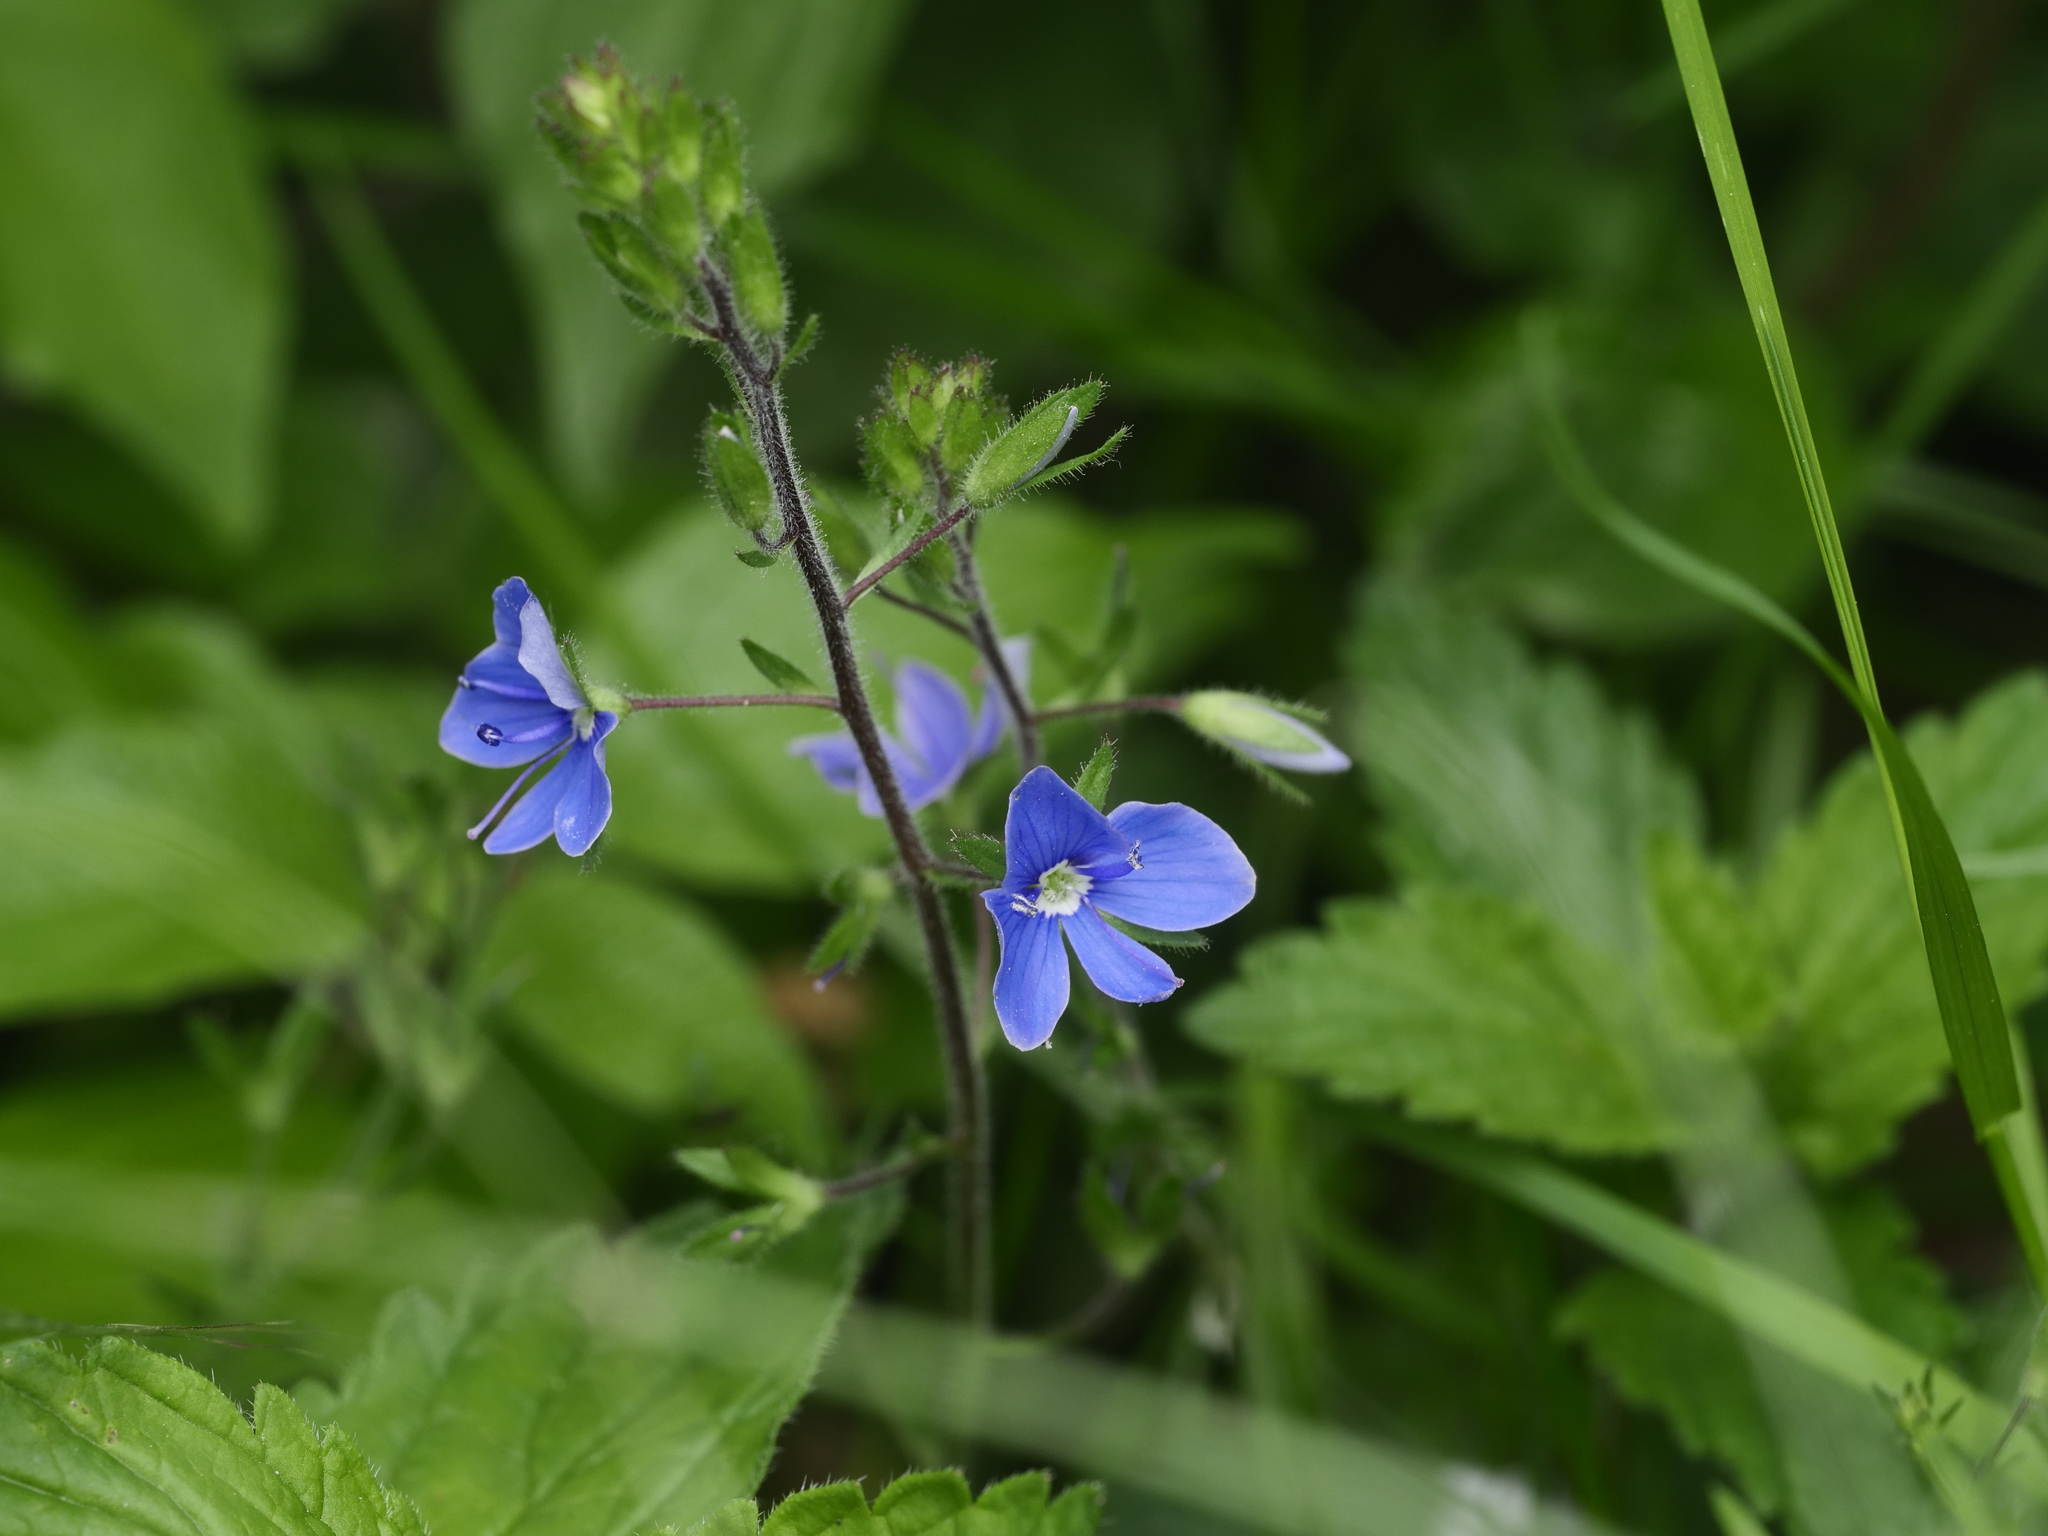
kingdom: Plantae
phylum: Tracheophyta
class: Magnoliopsida
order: Lamiales
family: Plantaginaceae
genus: Veronica
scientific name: Veronica chamaedrys
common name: Germander speedwell
